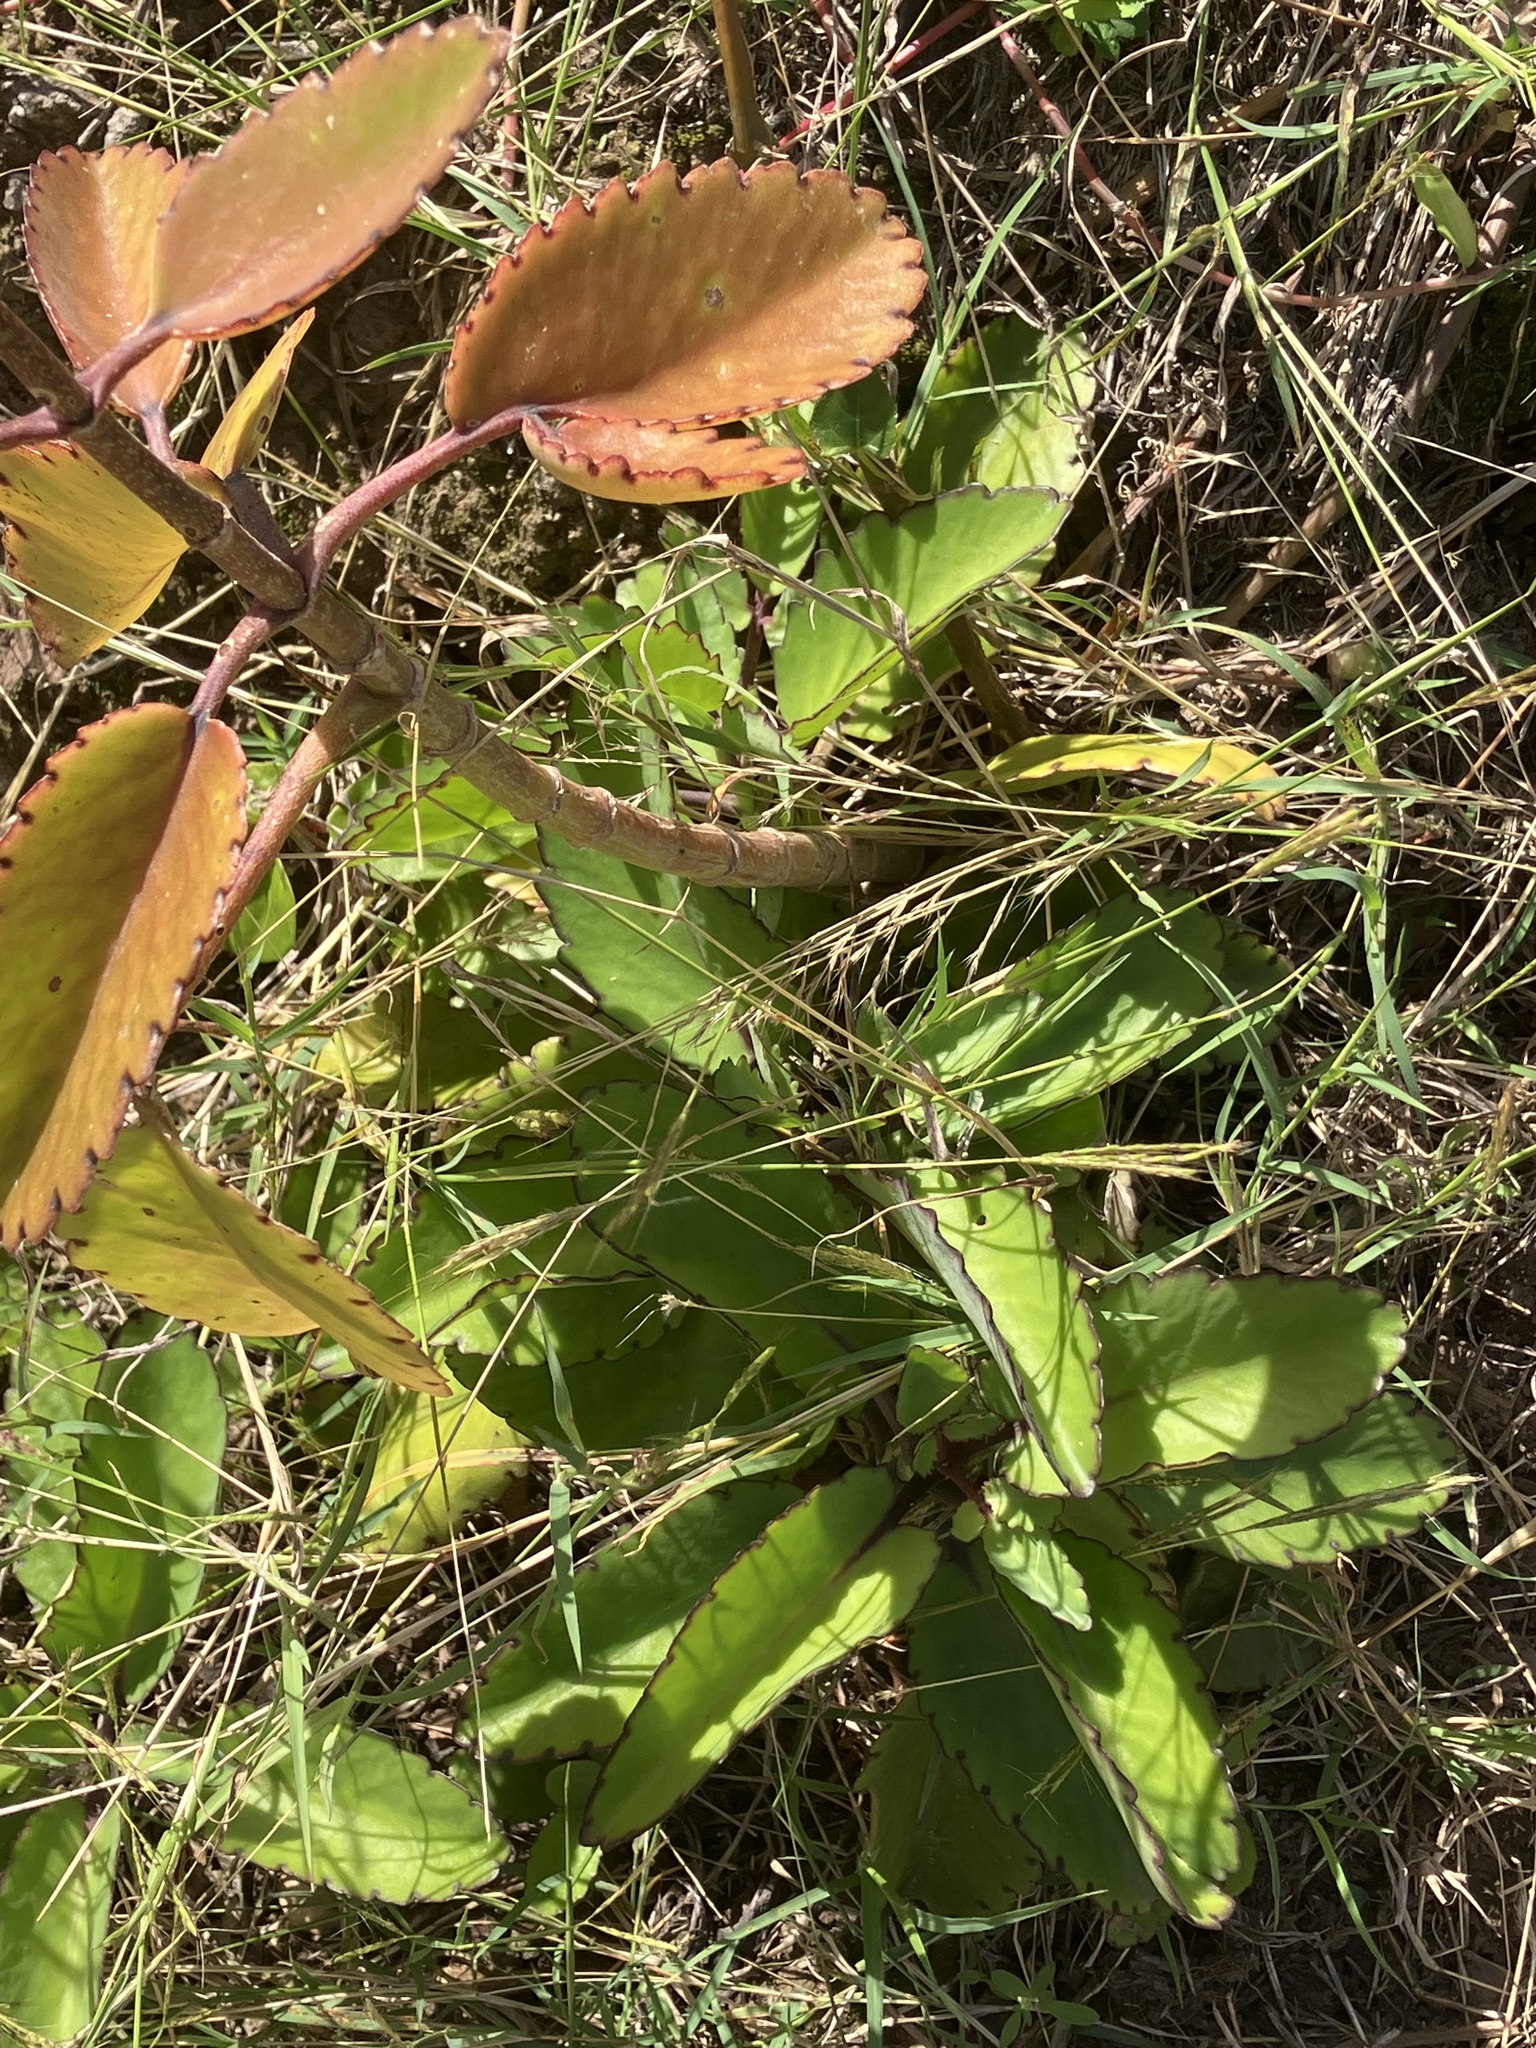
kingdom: Plantae
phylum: Tracheophyta
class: Magnoliopsida
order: Saxifragales
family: Crassulaceae
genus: Kalanchoe
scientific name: Kalanchoe pinnata
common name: Cathedral bells
